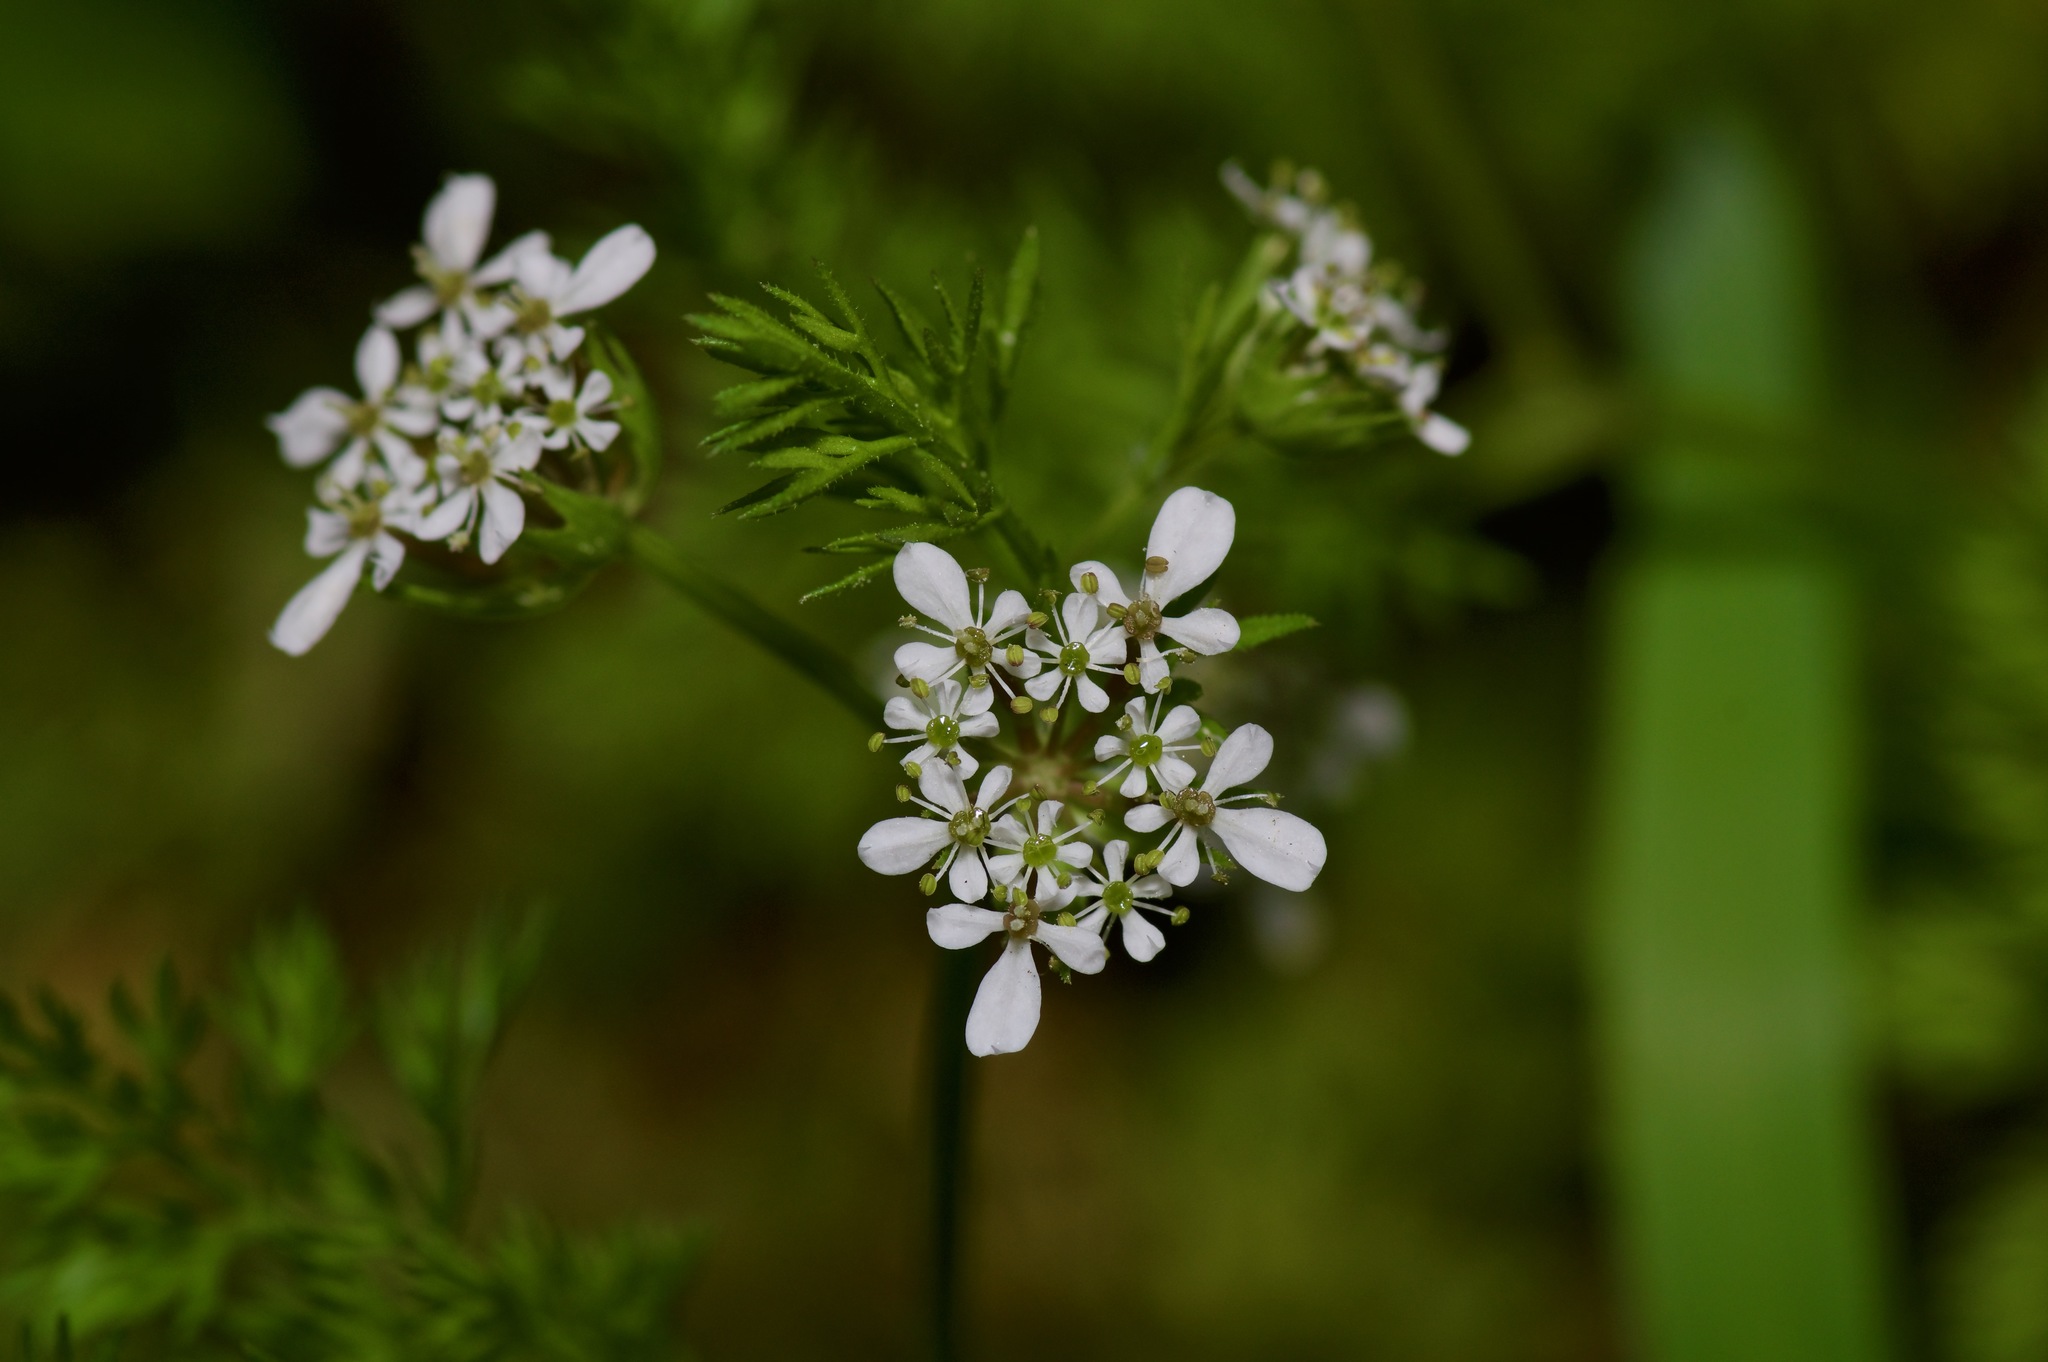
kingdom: Plantae
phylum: Tracheophyta
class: Magnoliopsida
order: Apiales
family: Apiaceae
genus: Scandix
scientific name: Scandix pecten-veneris
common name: Shepherd's-needle
